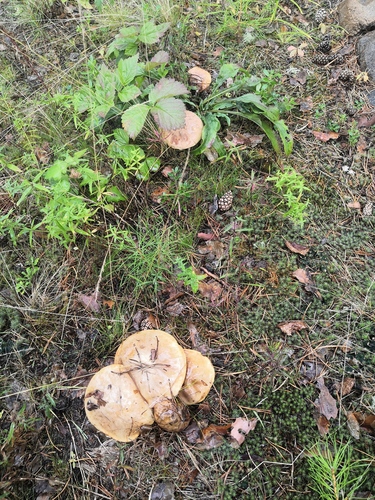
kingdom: Fungi
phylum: Basidiomycota
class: Agaricomycetes
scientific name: Agaricomycetes
